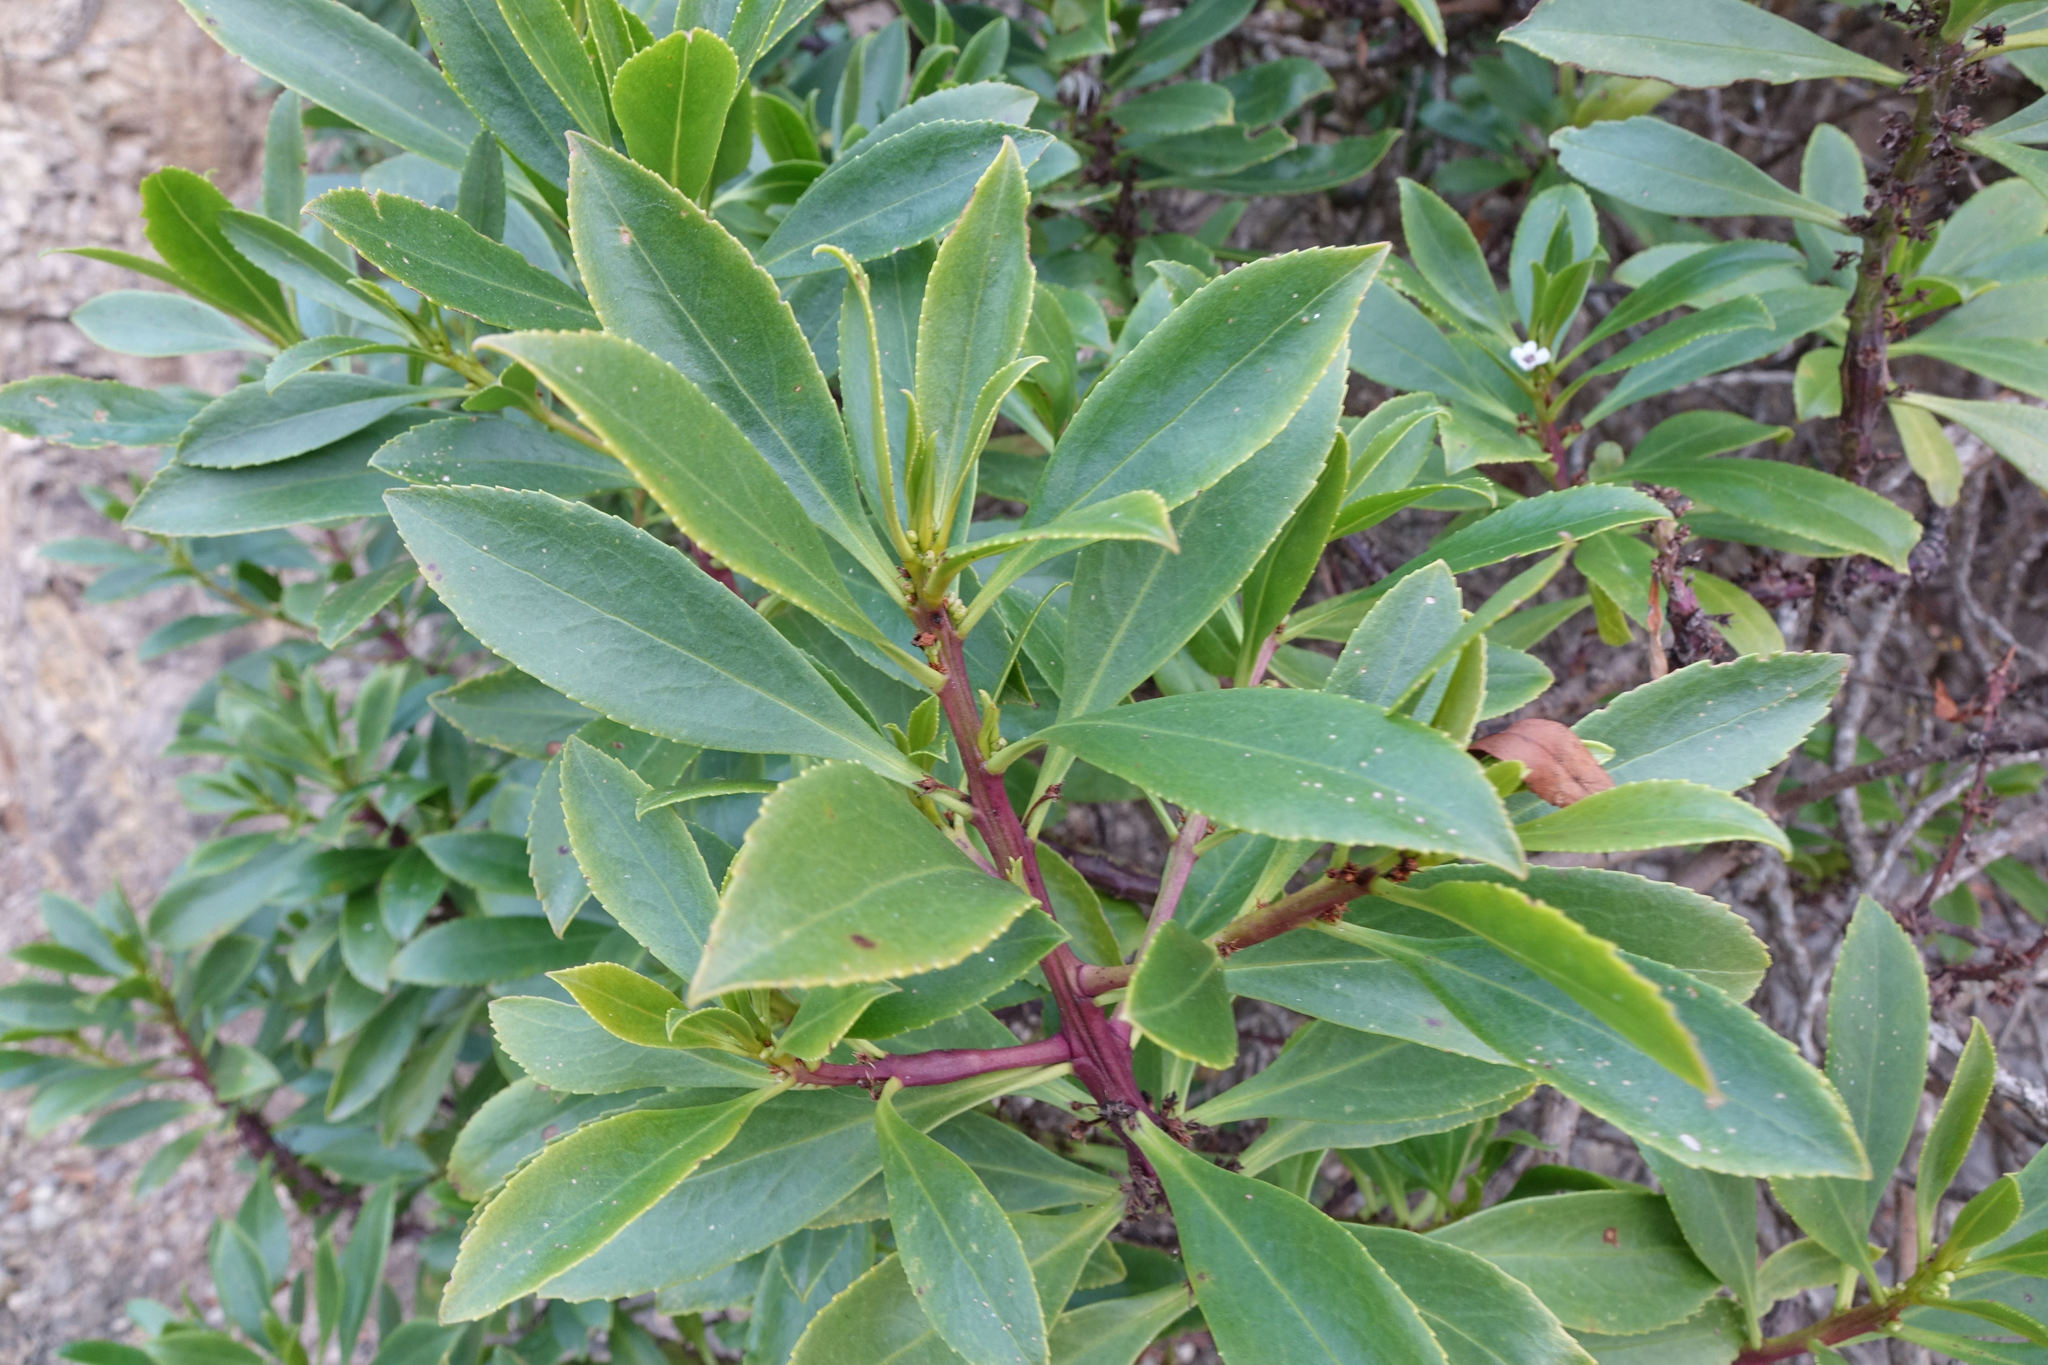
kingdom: Plantae
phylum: Tracheophyta
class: Magnoliopsida
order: Lamiales
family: Scrophulariaceae
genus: Myoporum
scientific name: Myoporum insulare
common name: Common boobialla
